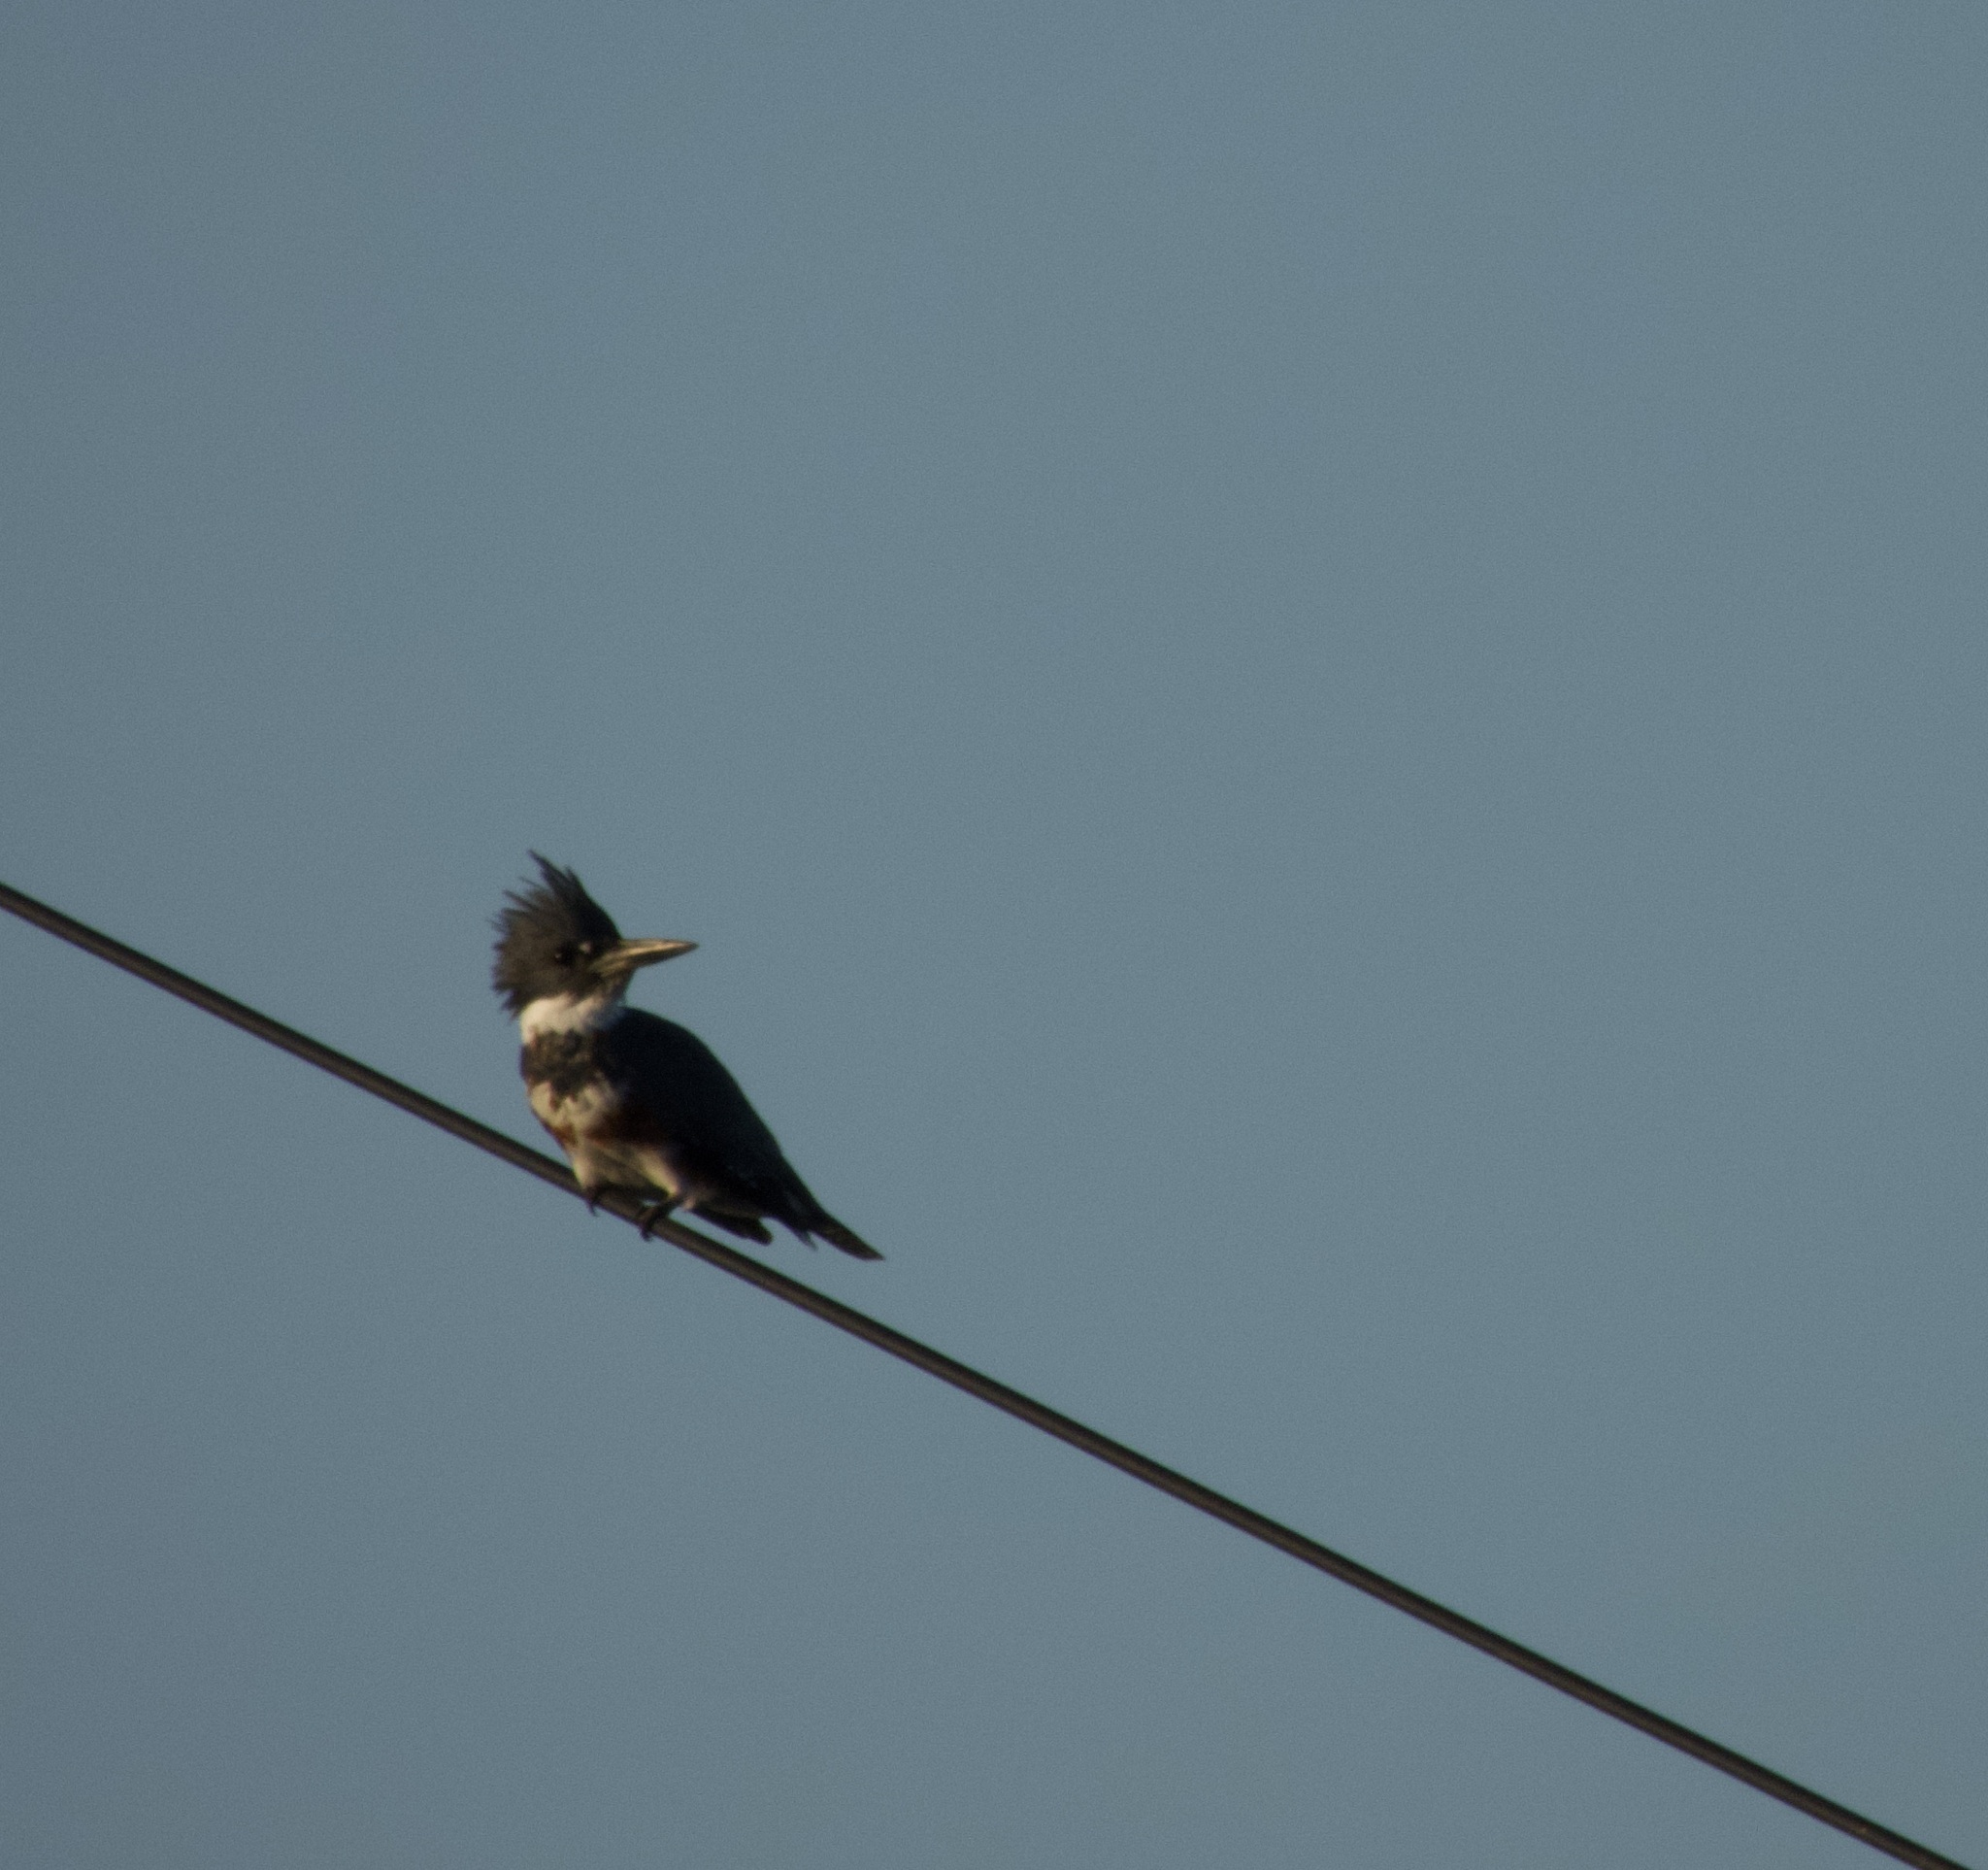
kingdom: Animalia
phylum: Chordata
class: Aves
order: Coraciiformes
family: Alcedinidae
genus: Megaceryle
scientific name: Megaceryle alcyon
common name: Belted kingfisher
